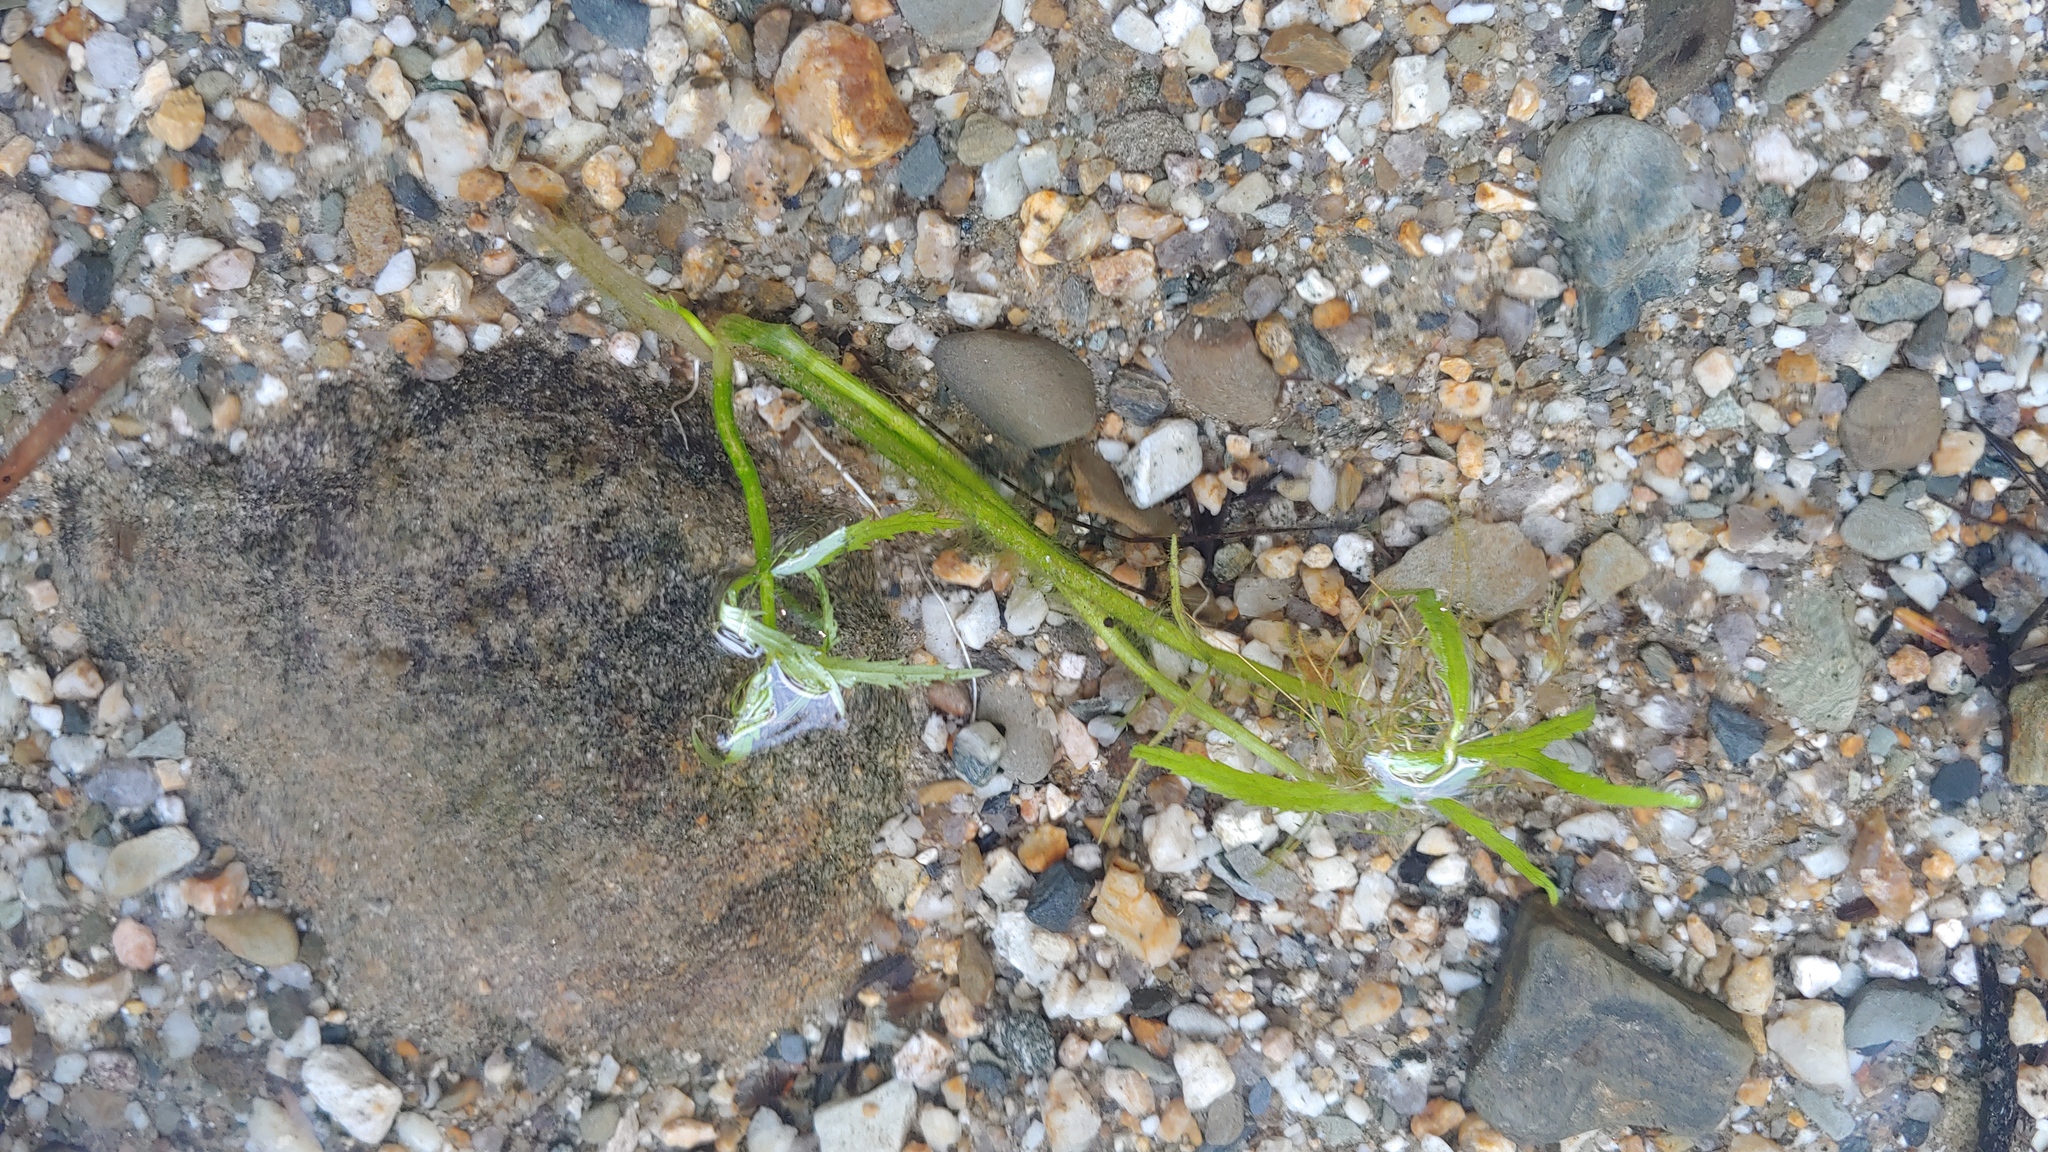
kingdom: Plantae
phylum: Tracheophyta
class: Magnoliopsida
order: Asterales
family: Asteraceae
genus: Bidens
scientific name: Bidens beckii
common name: Beck's beggarticks
